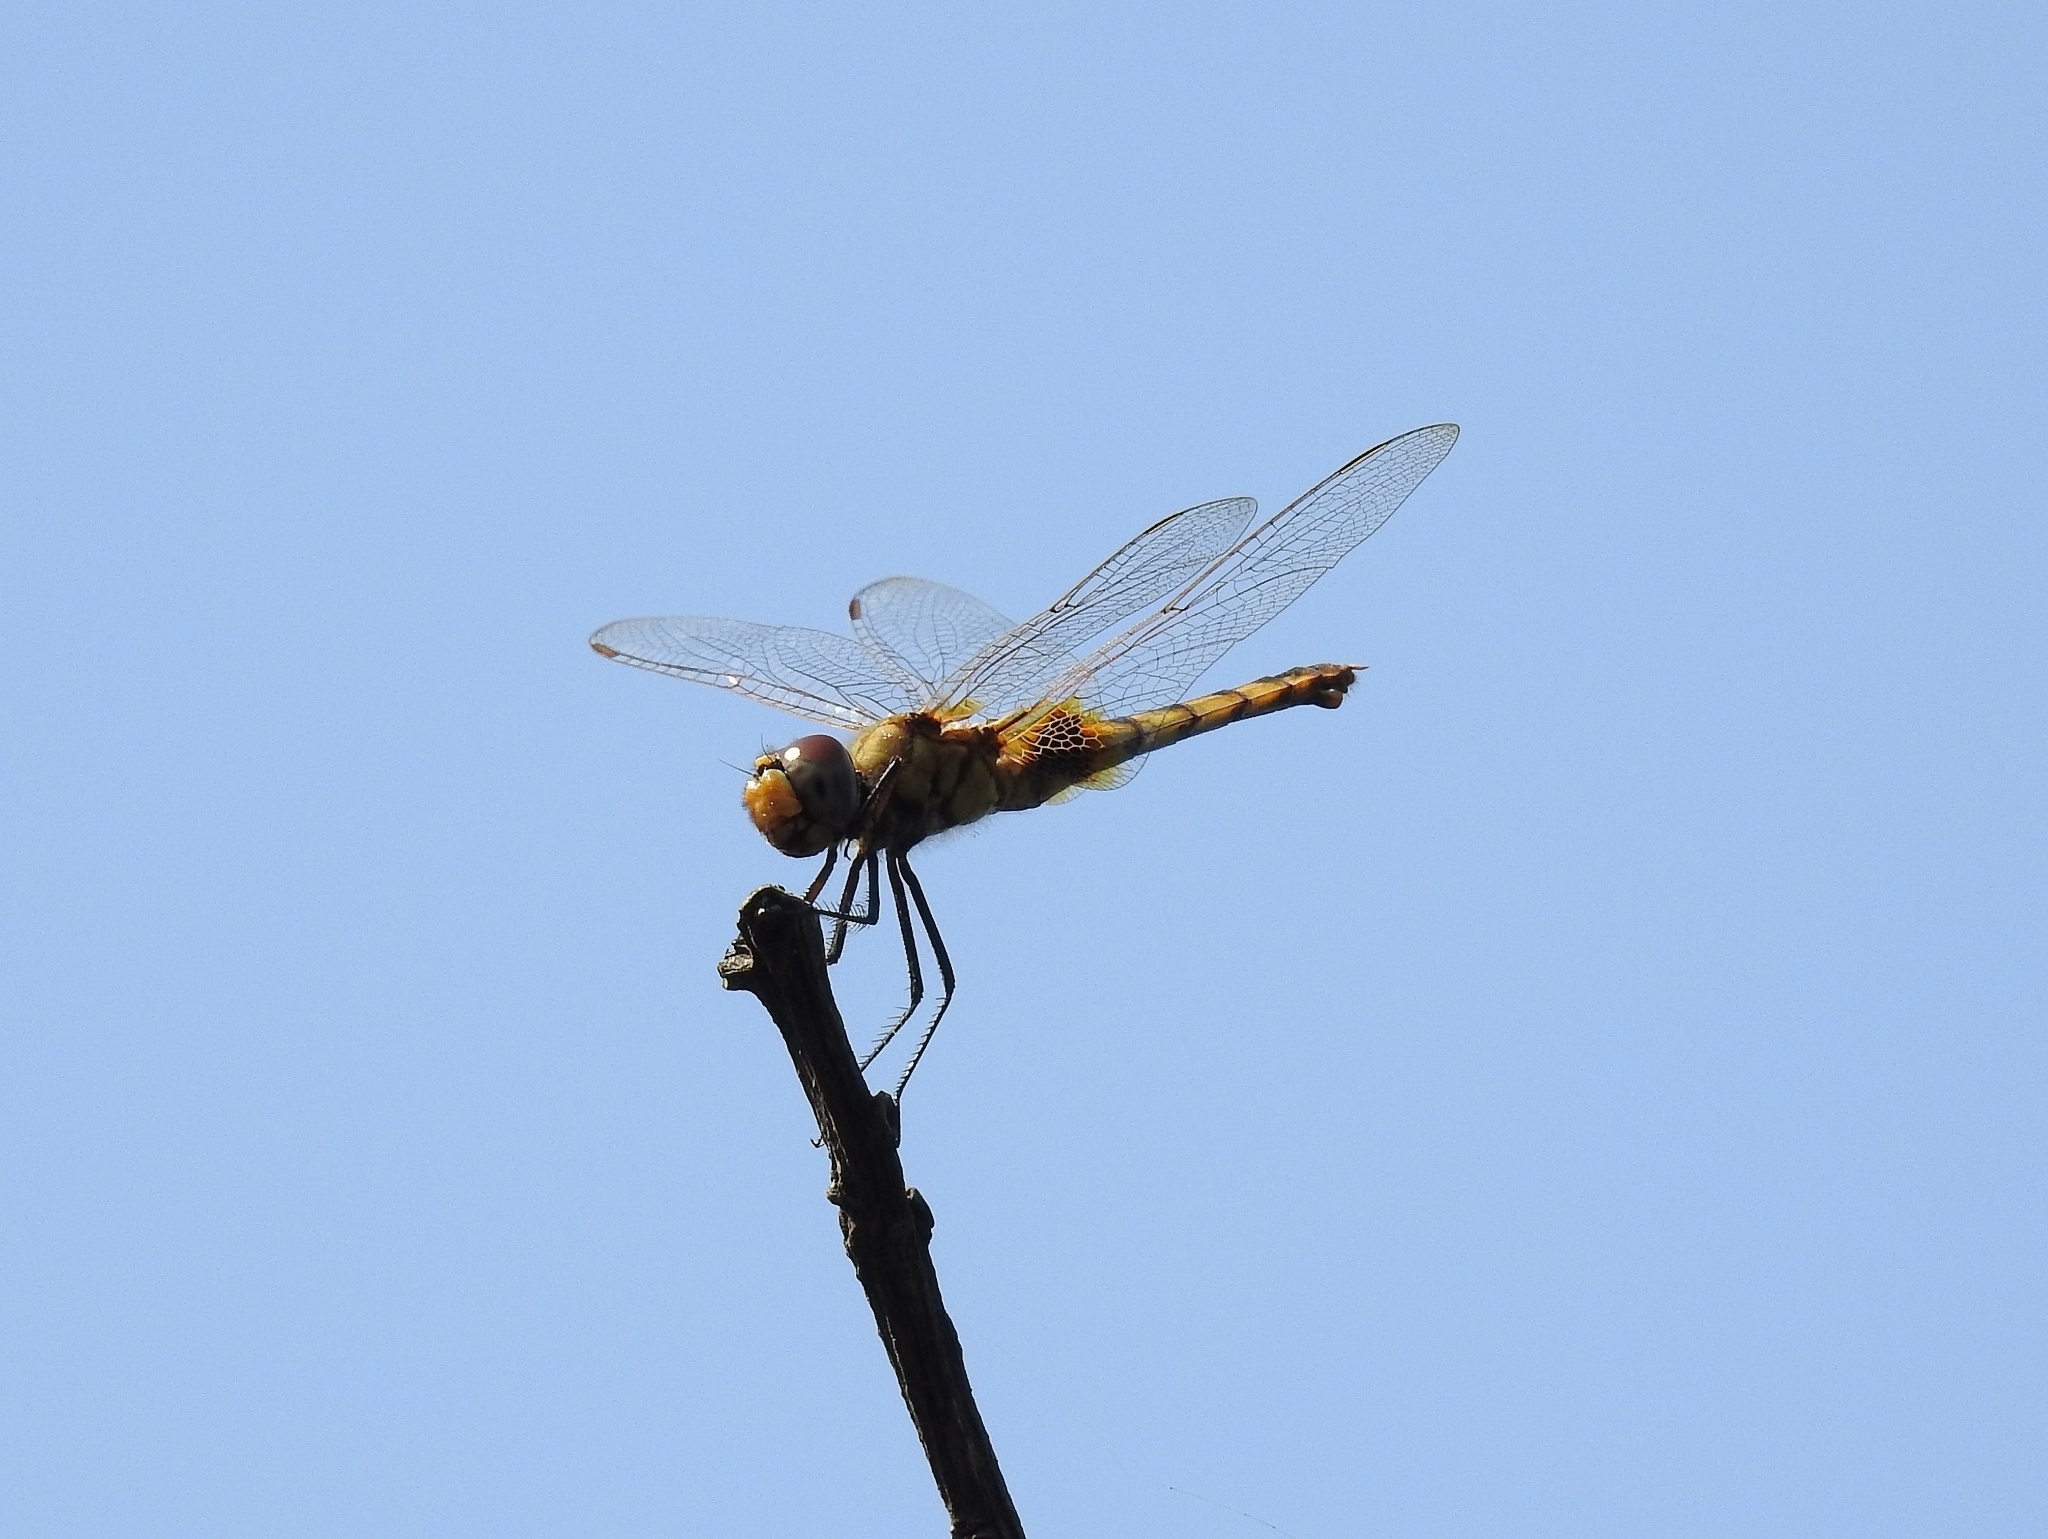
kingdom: Animalia
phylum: Arthropoda
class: Insecta
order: Odonata
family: Libellulidae
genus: Urothemis
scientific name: Urothemis signata
